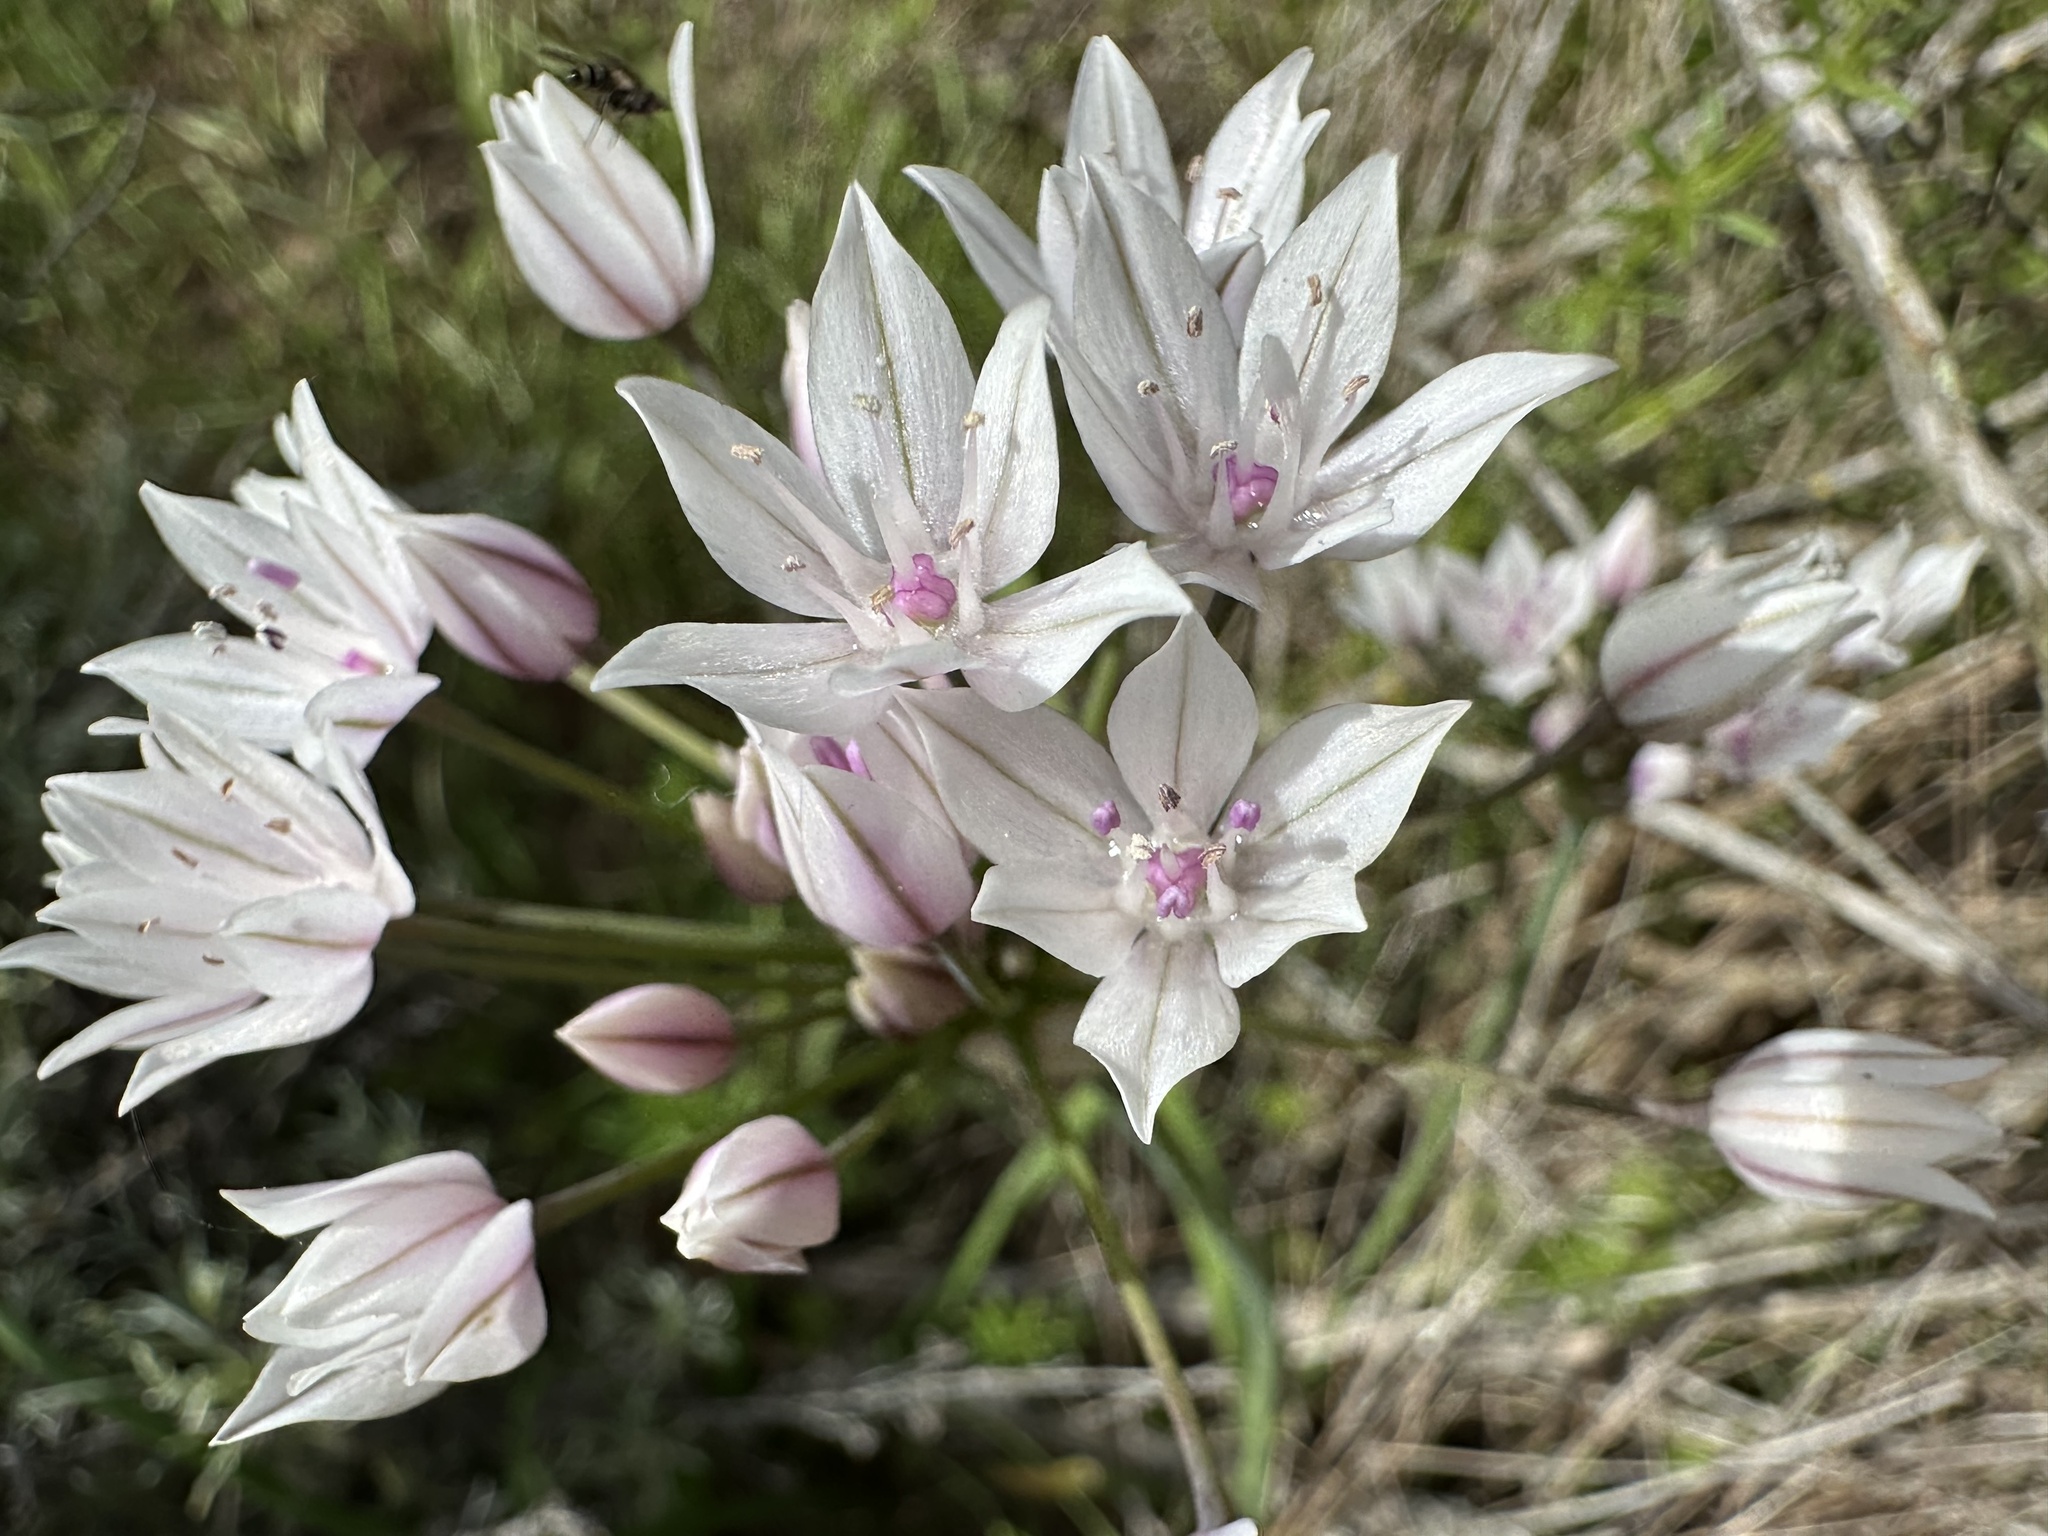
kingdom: Plantae
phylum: Tracheophyta
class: Liliopsida
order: Asparagales
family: Amaryllidaceae
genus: Allium
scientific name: Allium praecox
